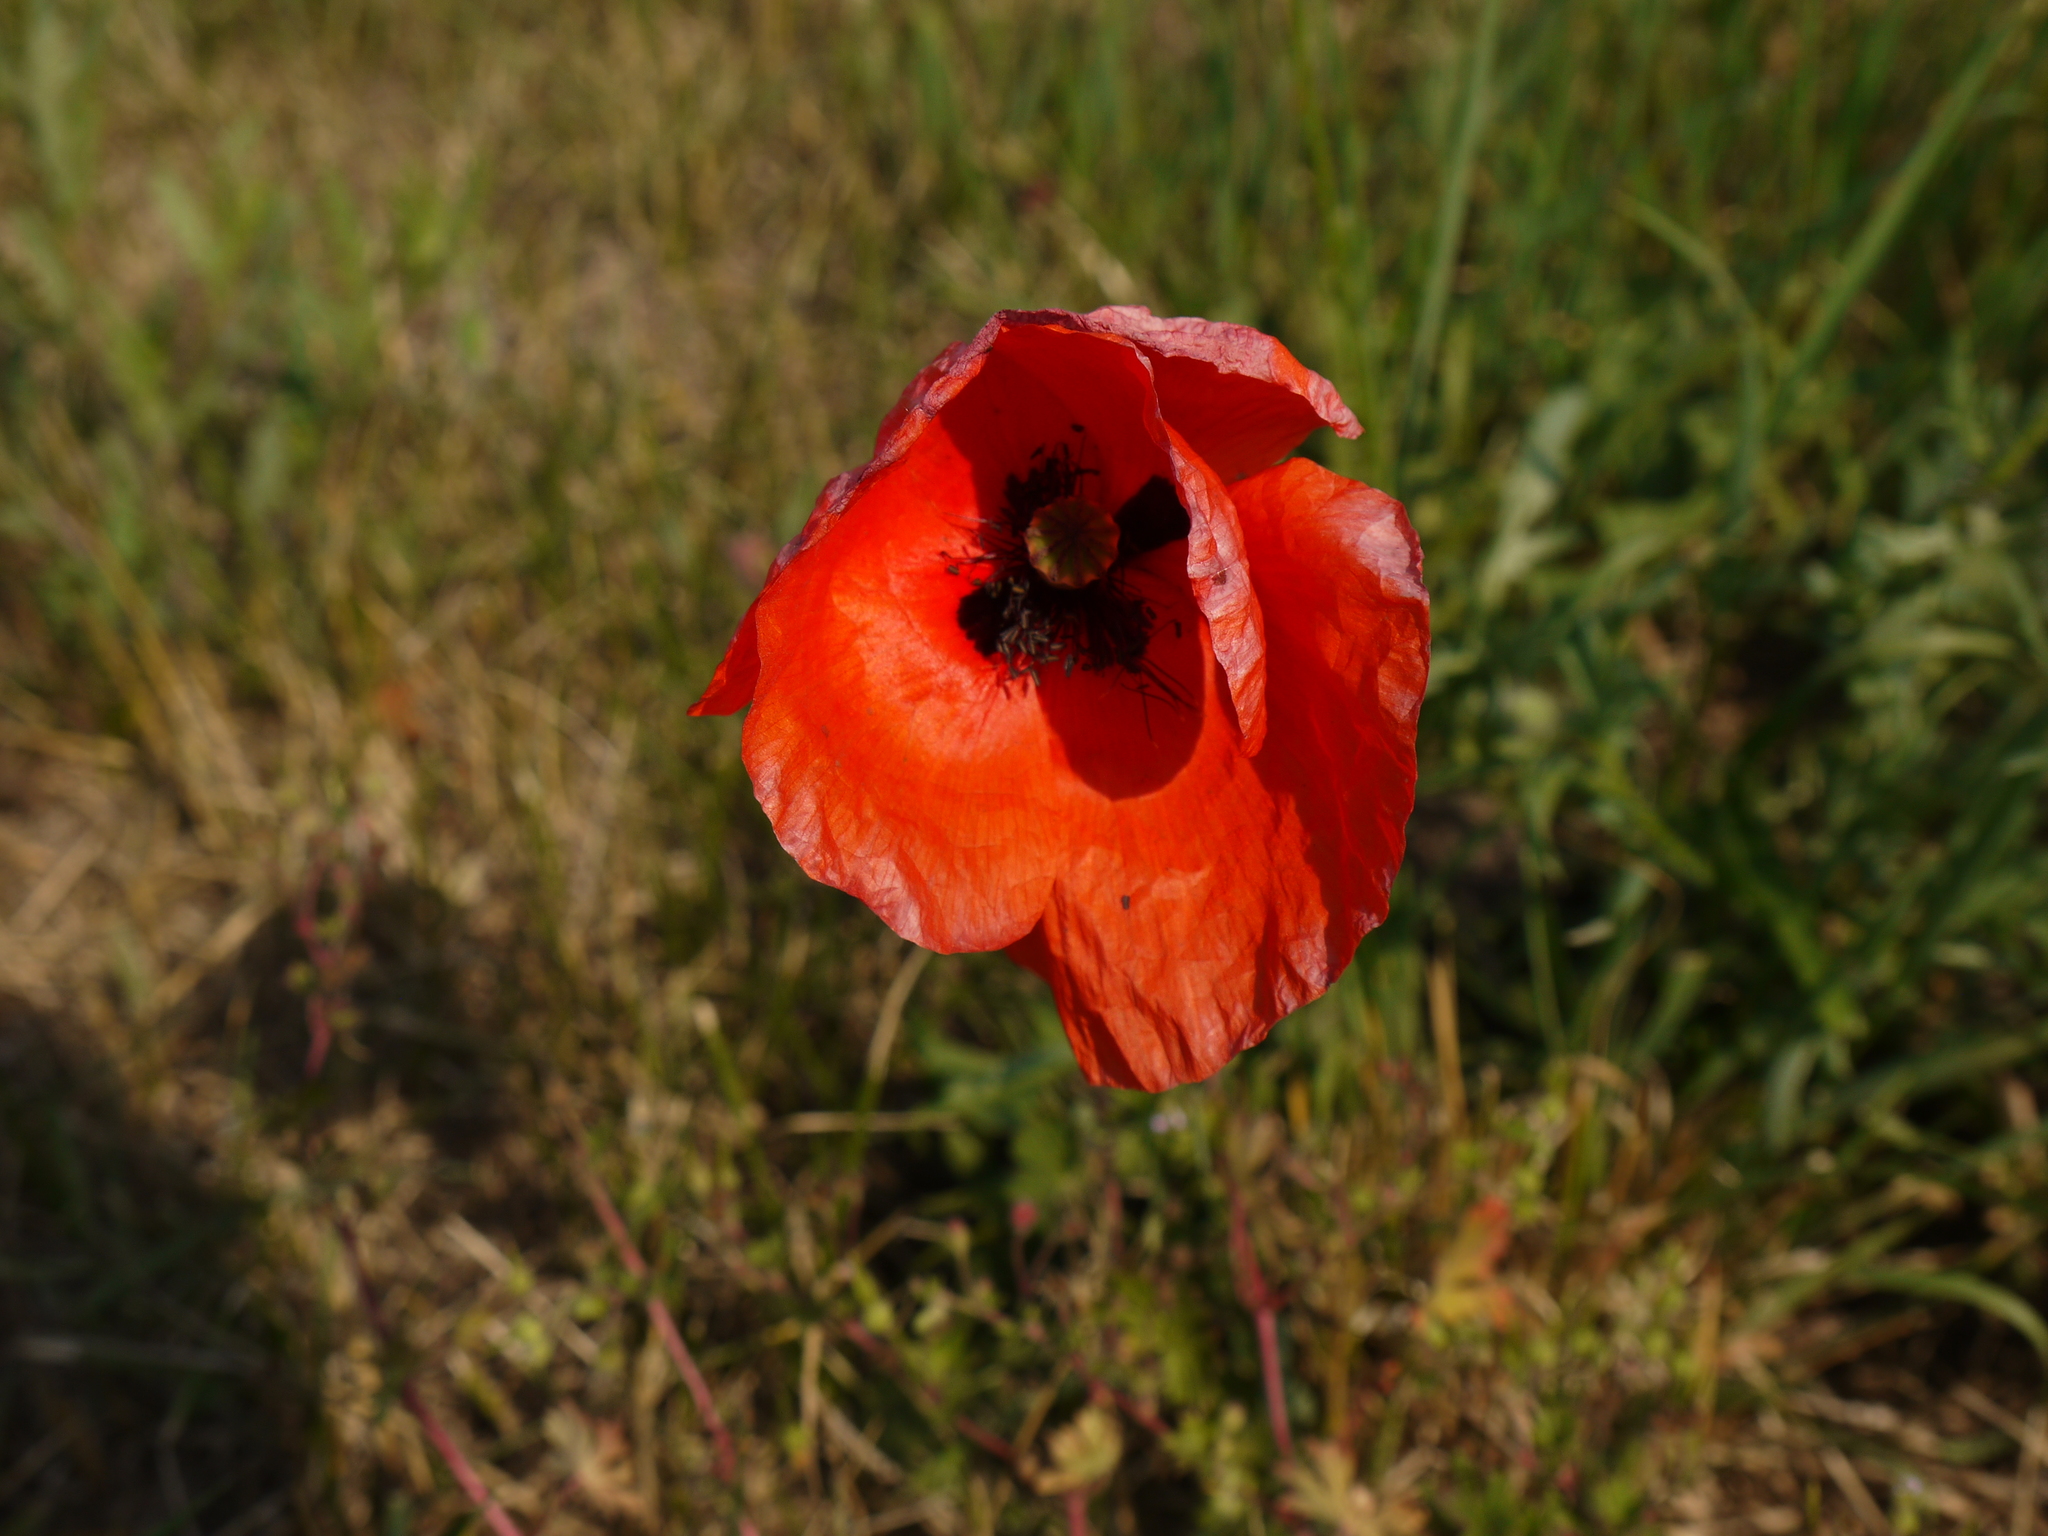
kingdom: Plantae
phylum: Tracheophyta
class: Magnoliopsida
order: Ranunculales
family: Papaveraceae
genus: Papaver
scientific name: Papaver rhoeas
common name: Corn poppy
